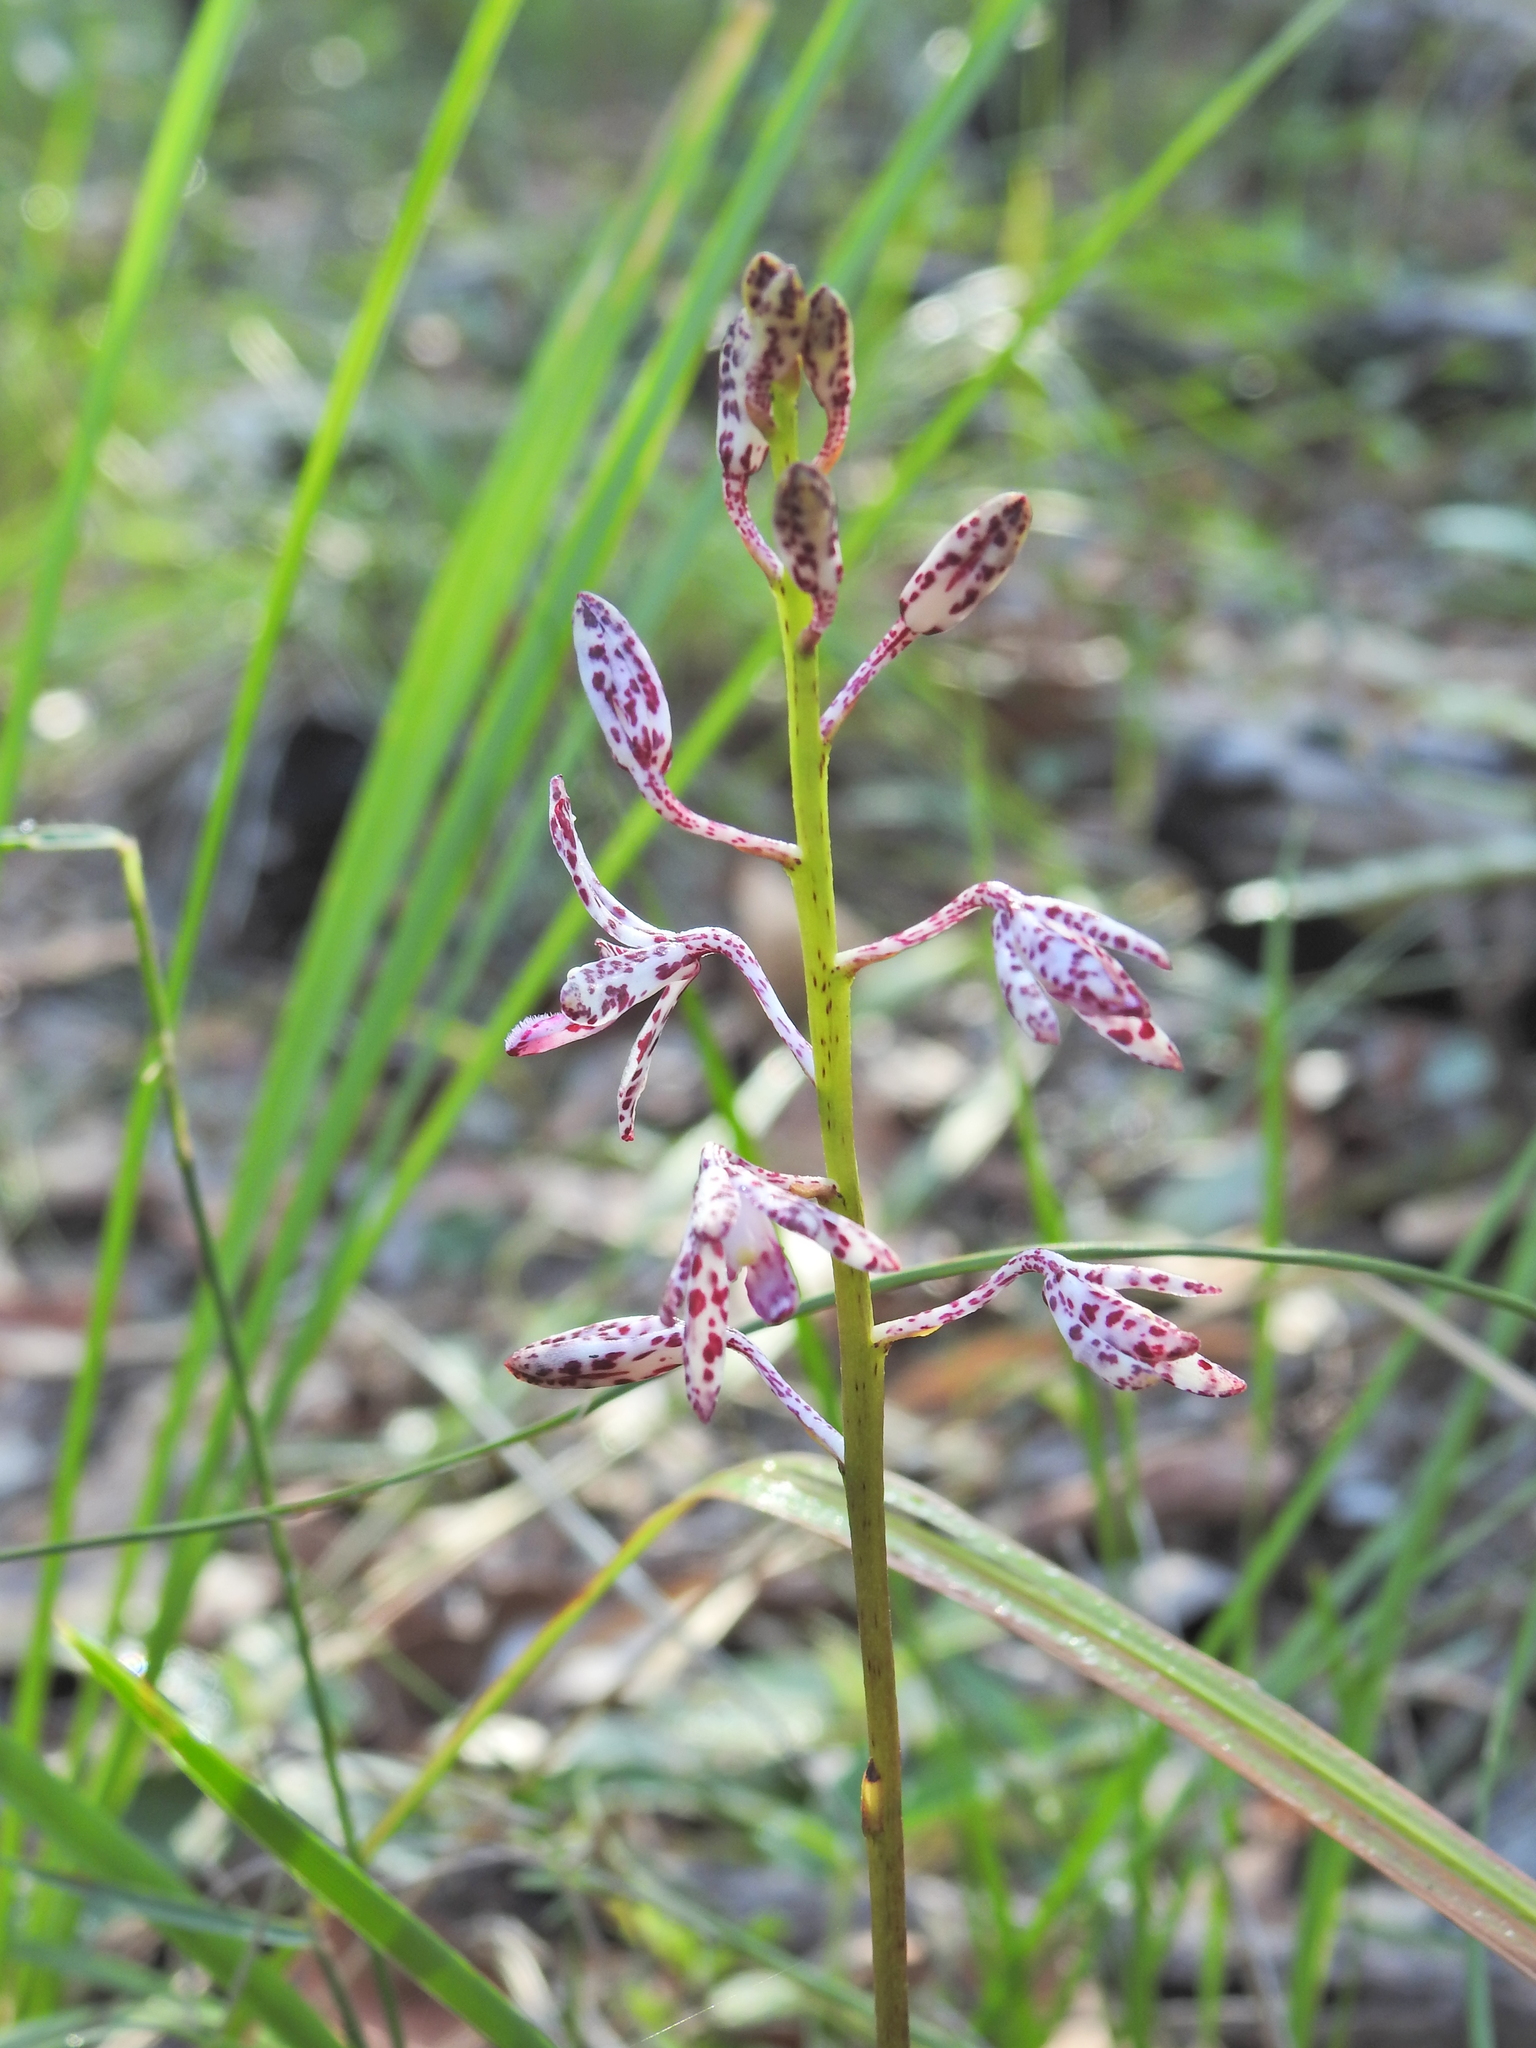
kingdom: Plantae
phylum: Tracheophyta
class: Liliopsida
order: Asparagales
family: Orchidaceae
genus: Dipodium
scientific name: Dipodium variegatum
